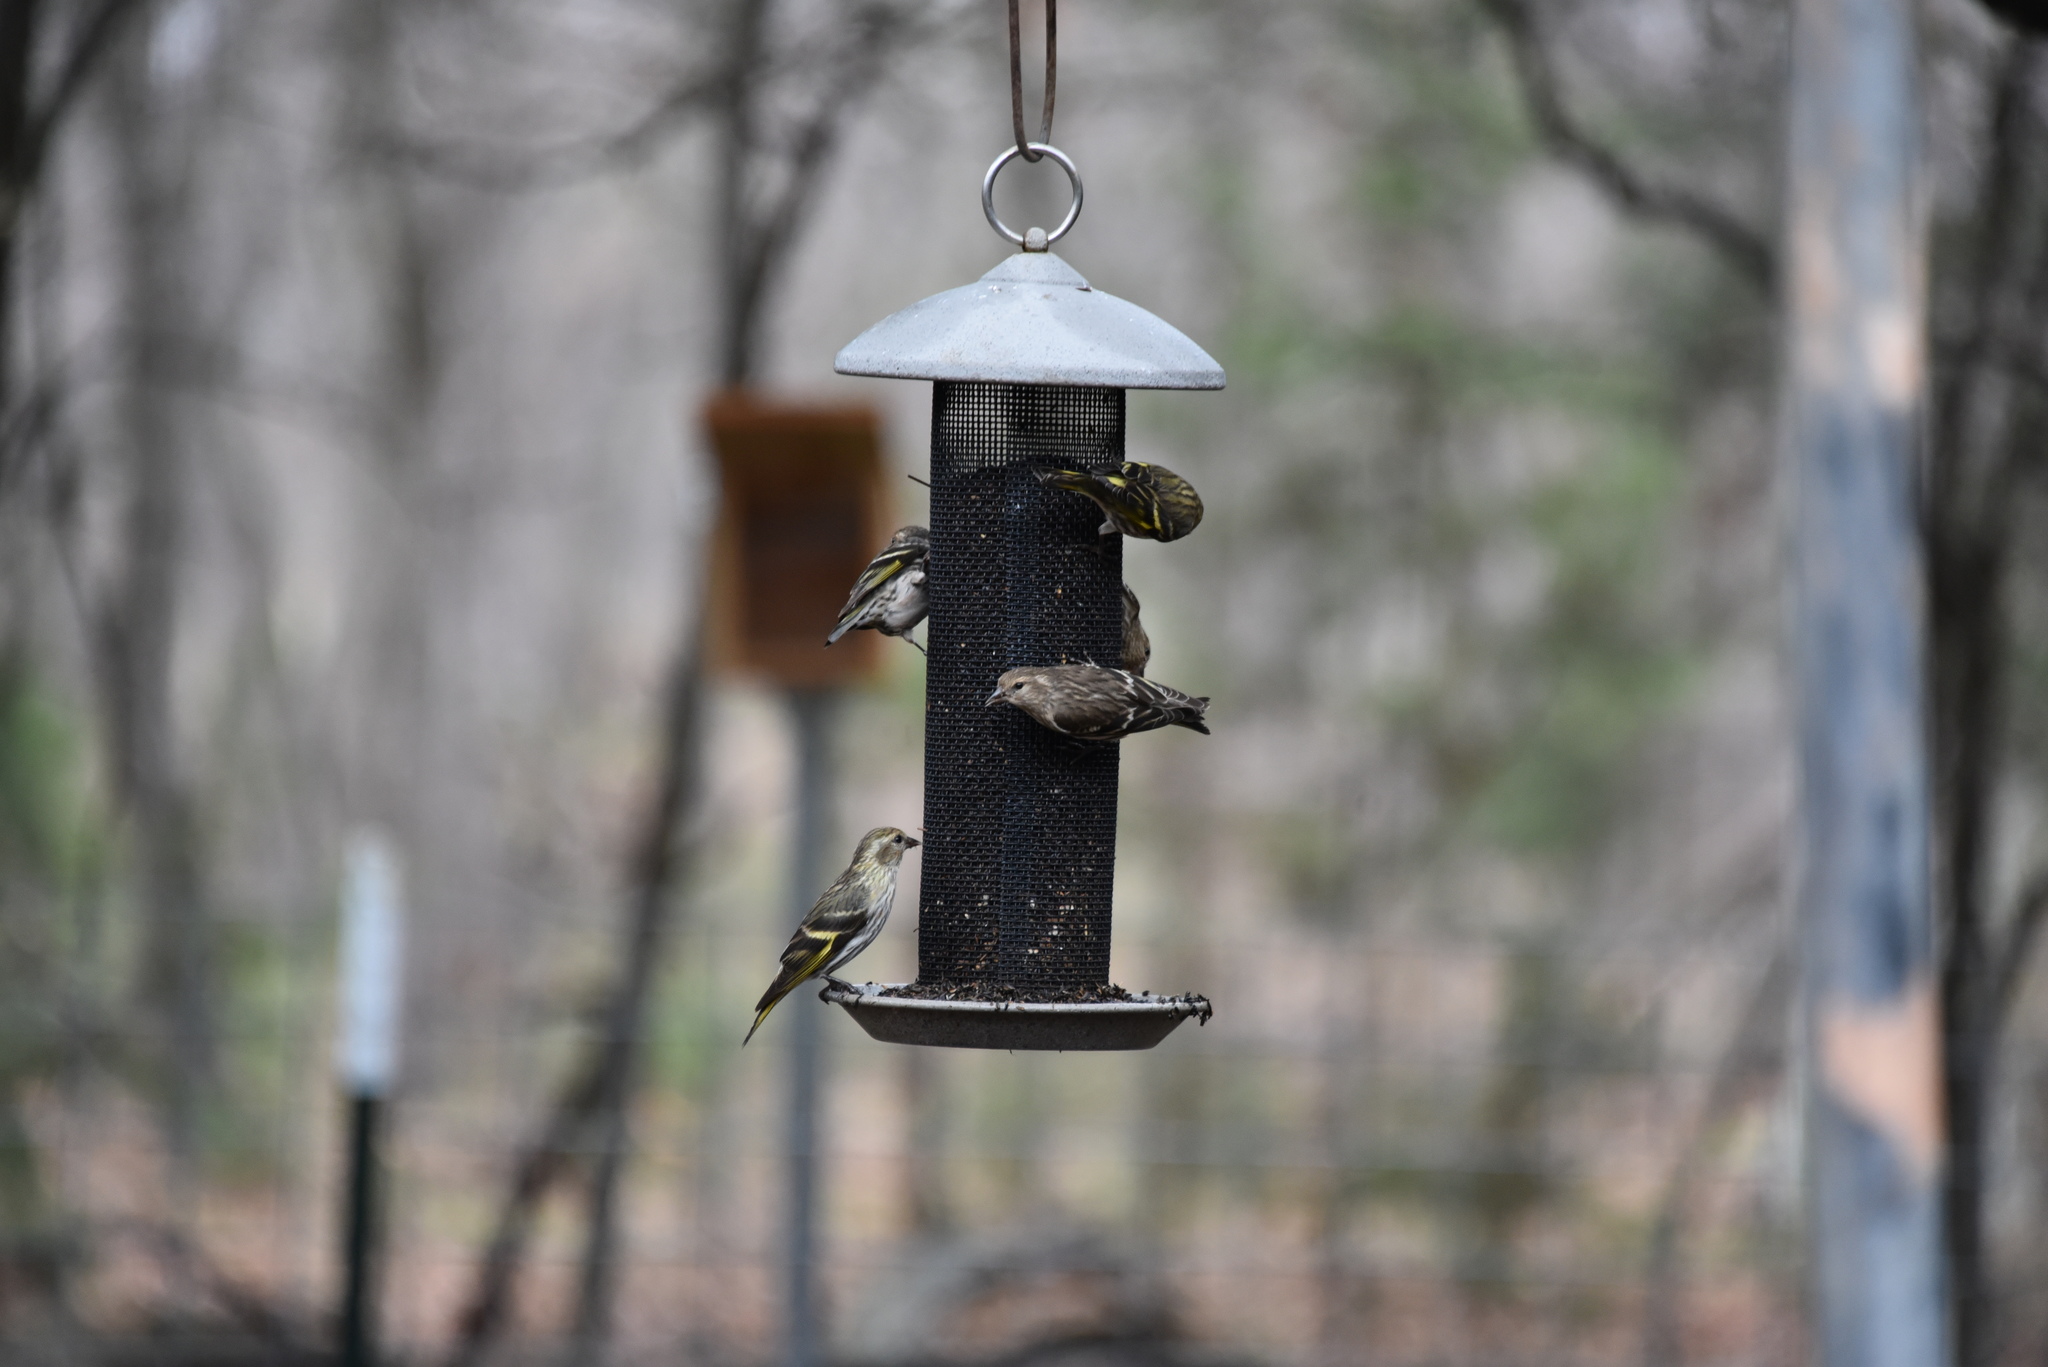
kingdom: Animalia
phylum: Chordata
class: Aves
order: Passeriformes
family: Fringillidae
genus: Spinus
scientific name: Spinus pinus
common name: Pine siskin
